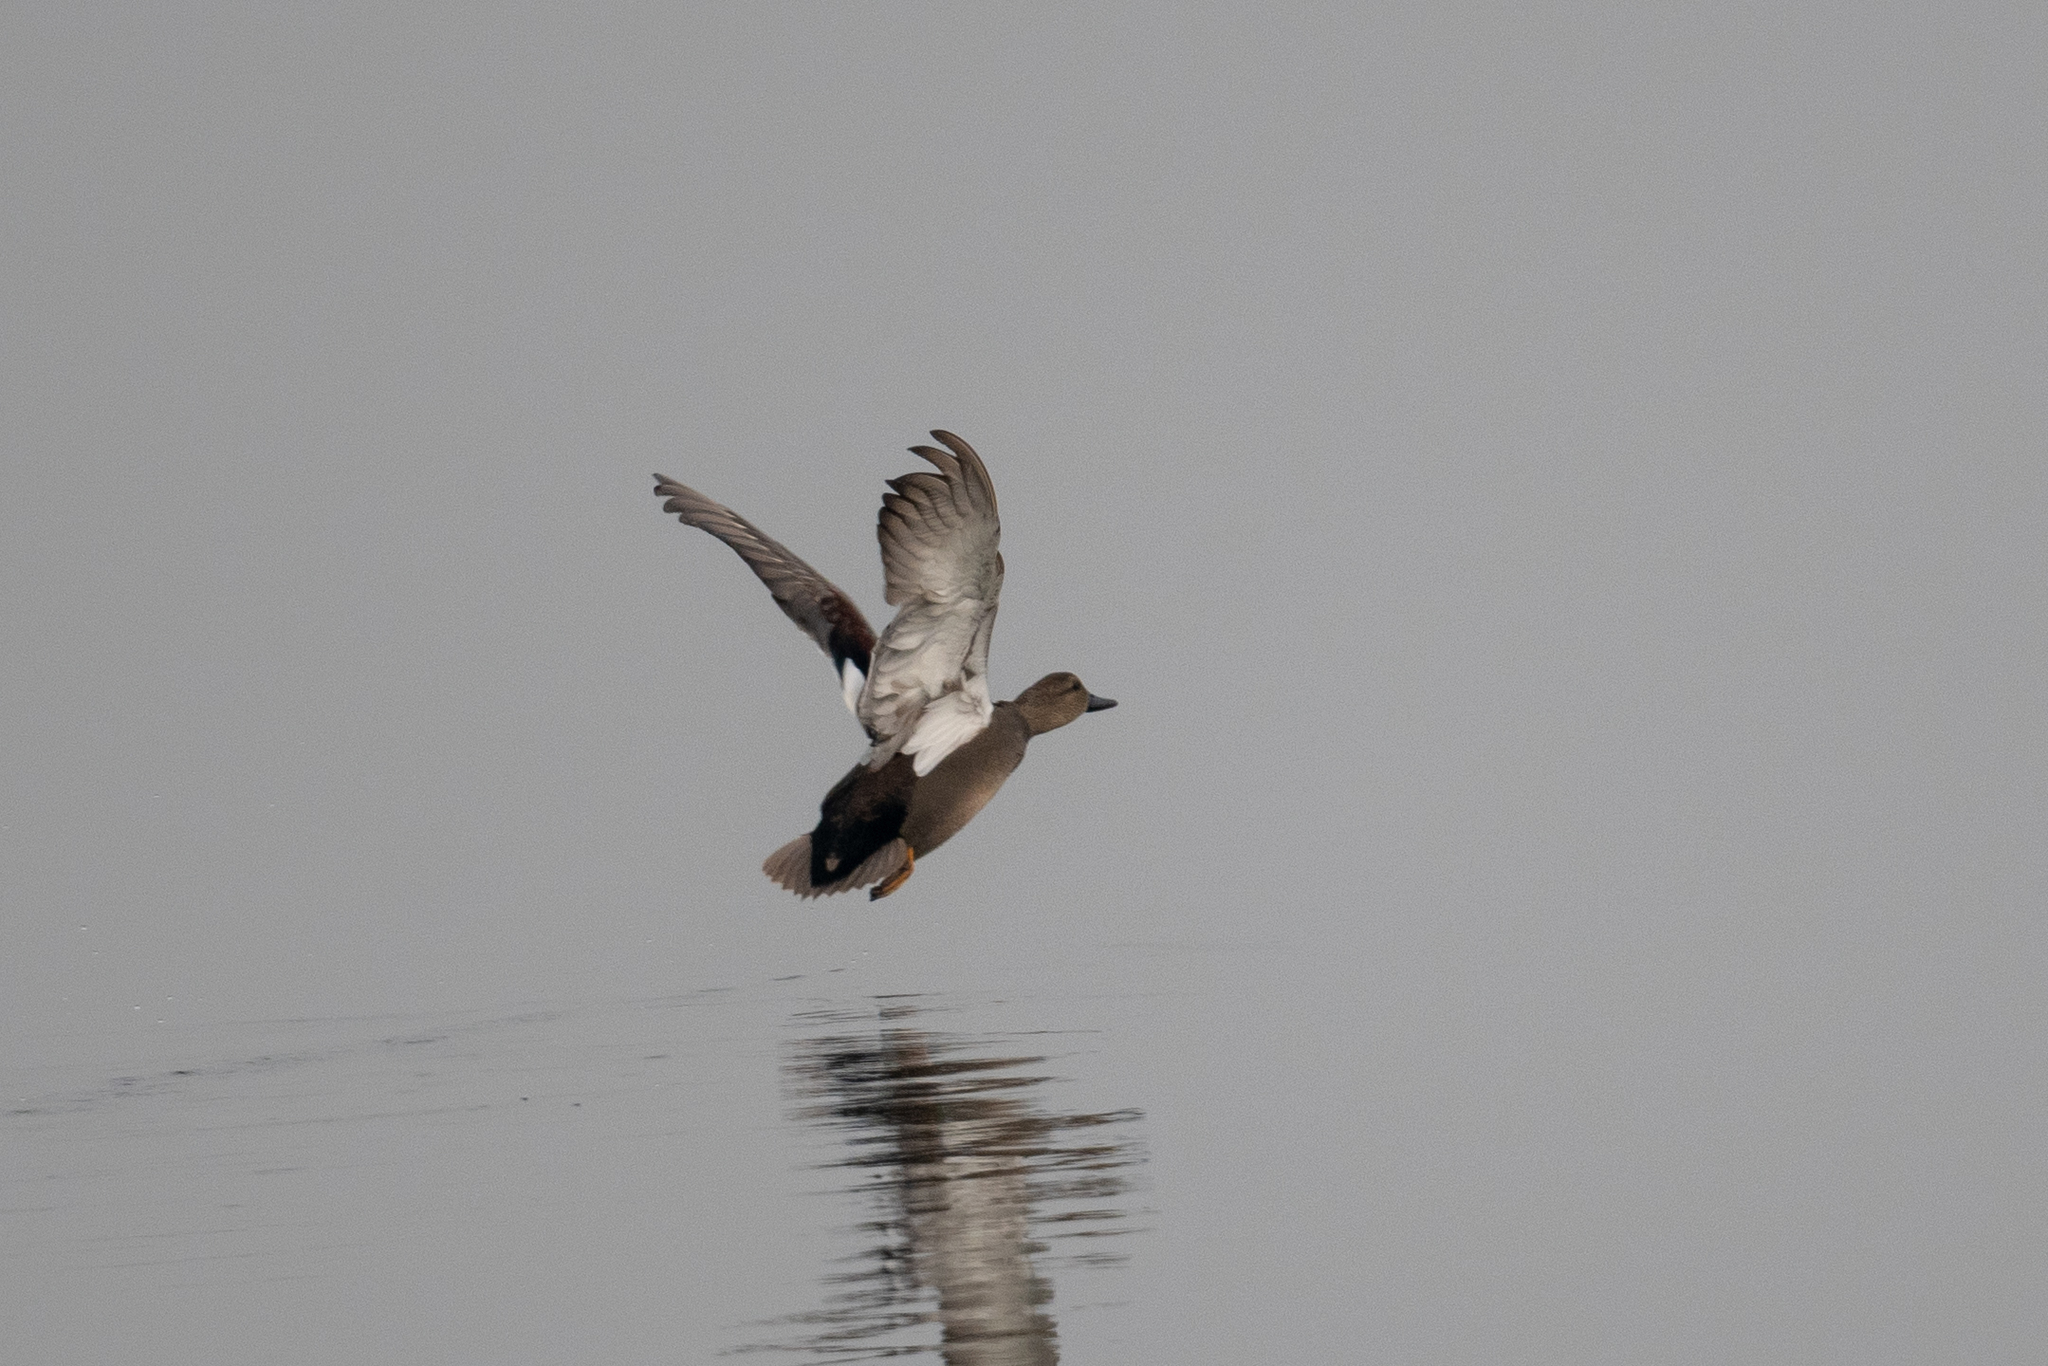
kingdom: Animalia
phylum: Chordata
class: Aves
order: Anseriformes
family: Anatidae
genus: Mareca
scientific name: Mareca strepera
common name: Gadwall
